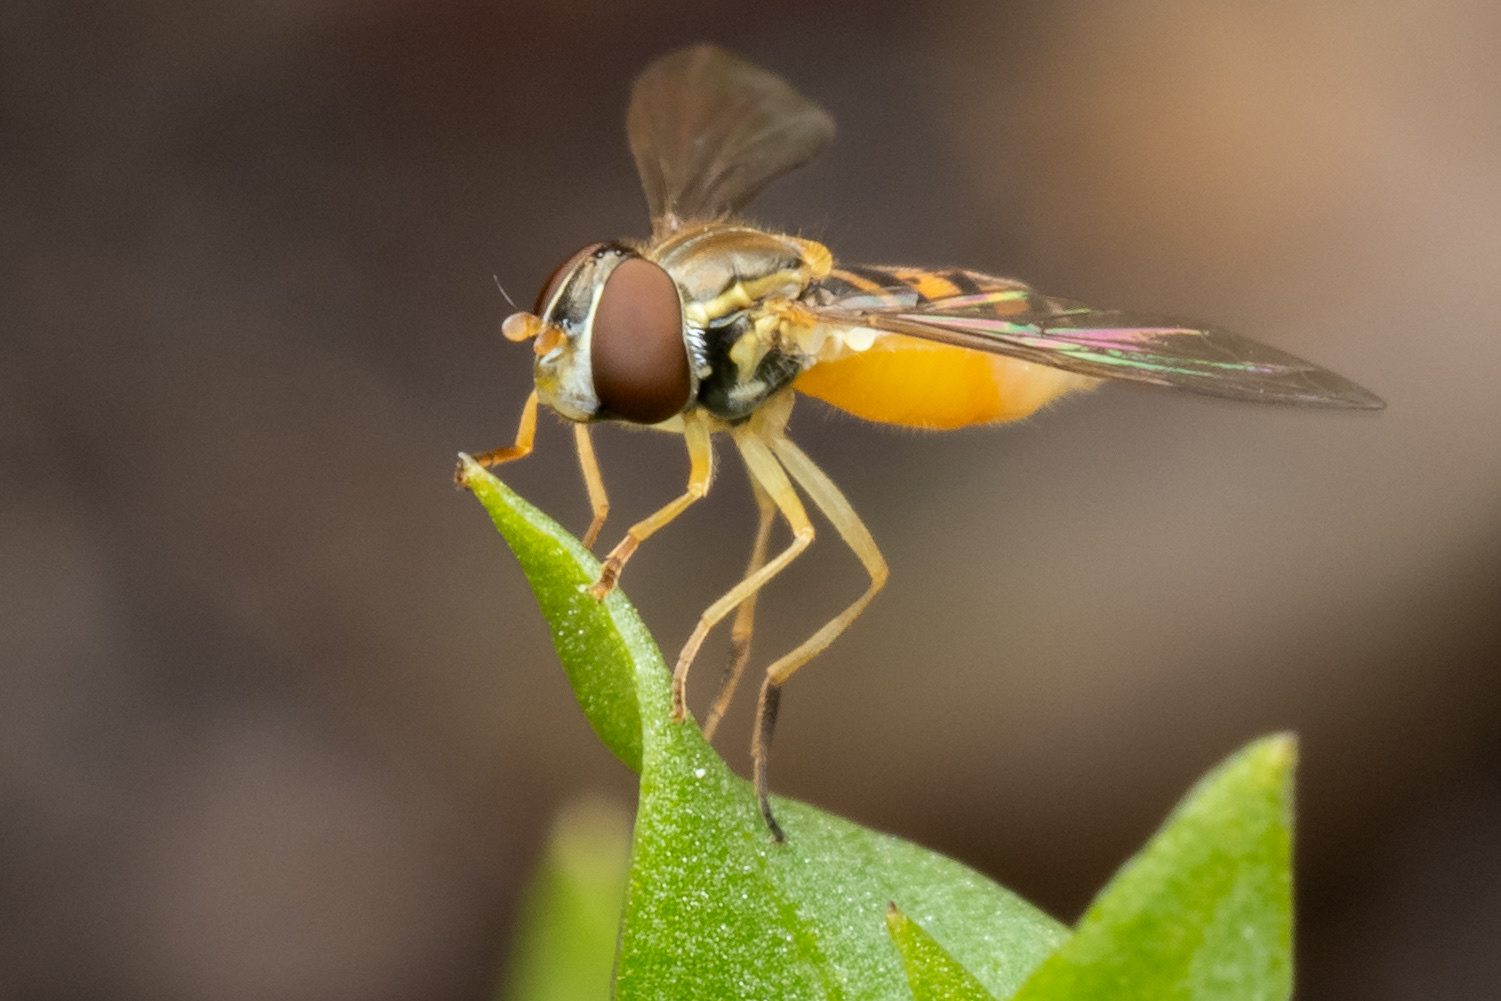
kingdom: Animalia
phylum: Arthropoda
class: Insecta
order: Diptera
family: Syrphidae
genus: Toxomerus
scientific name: Toxomerus marginatus
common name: Syrphid fly
